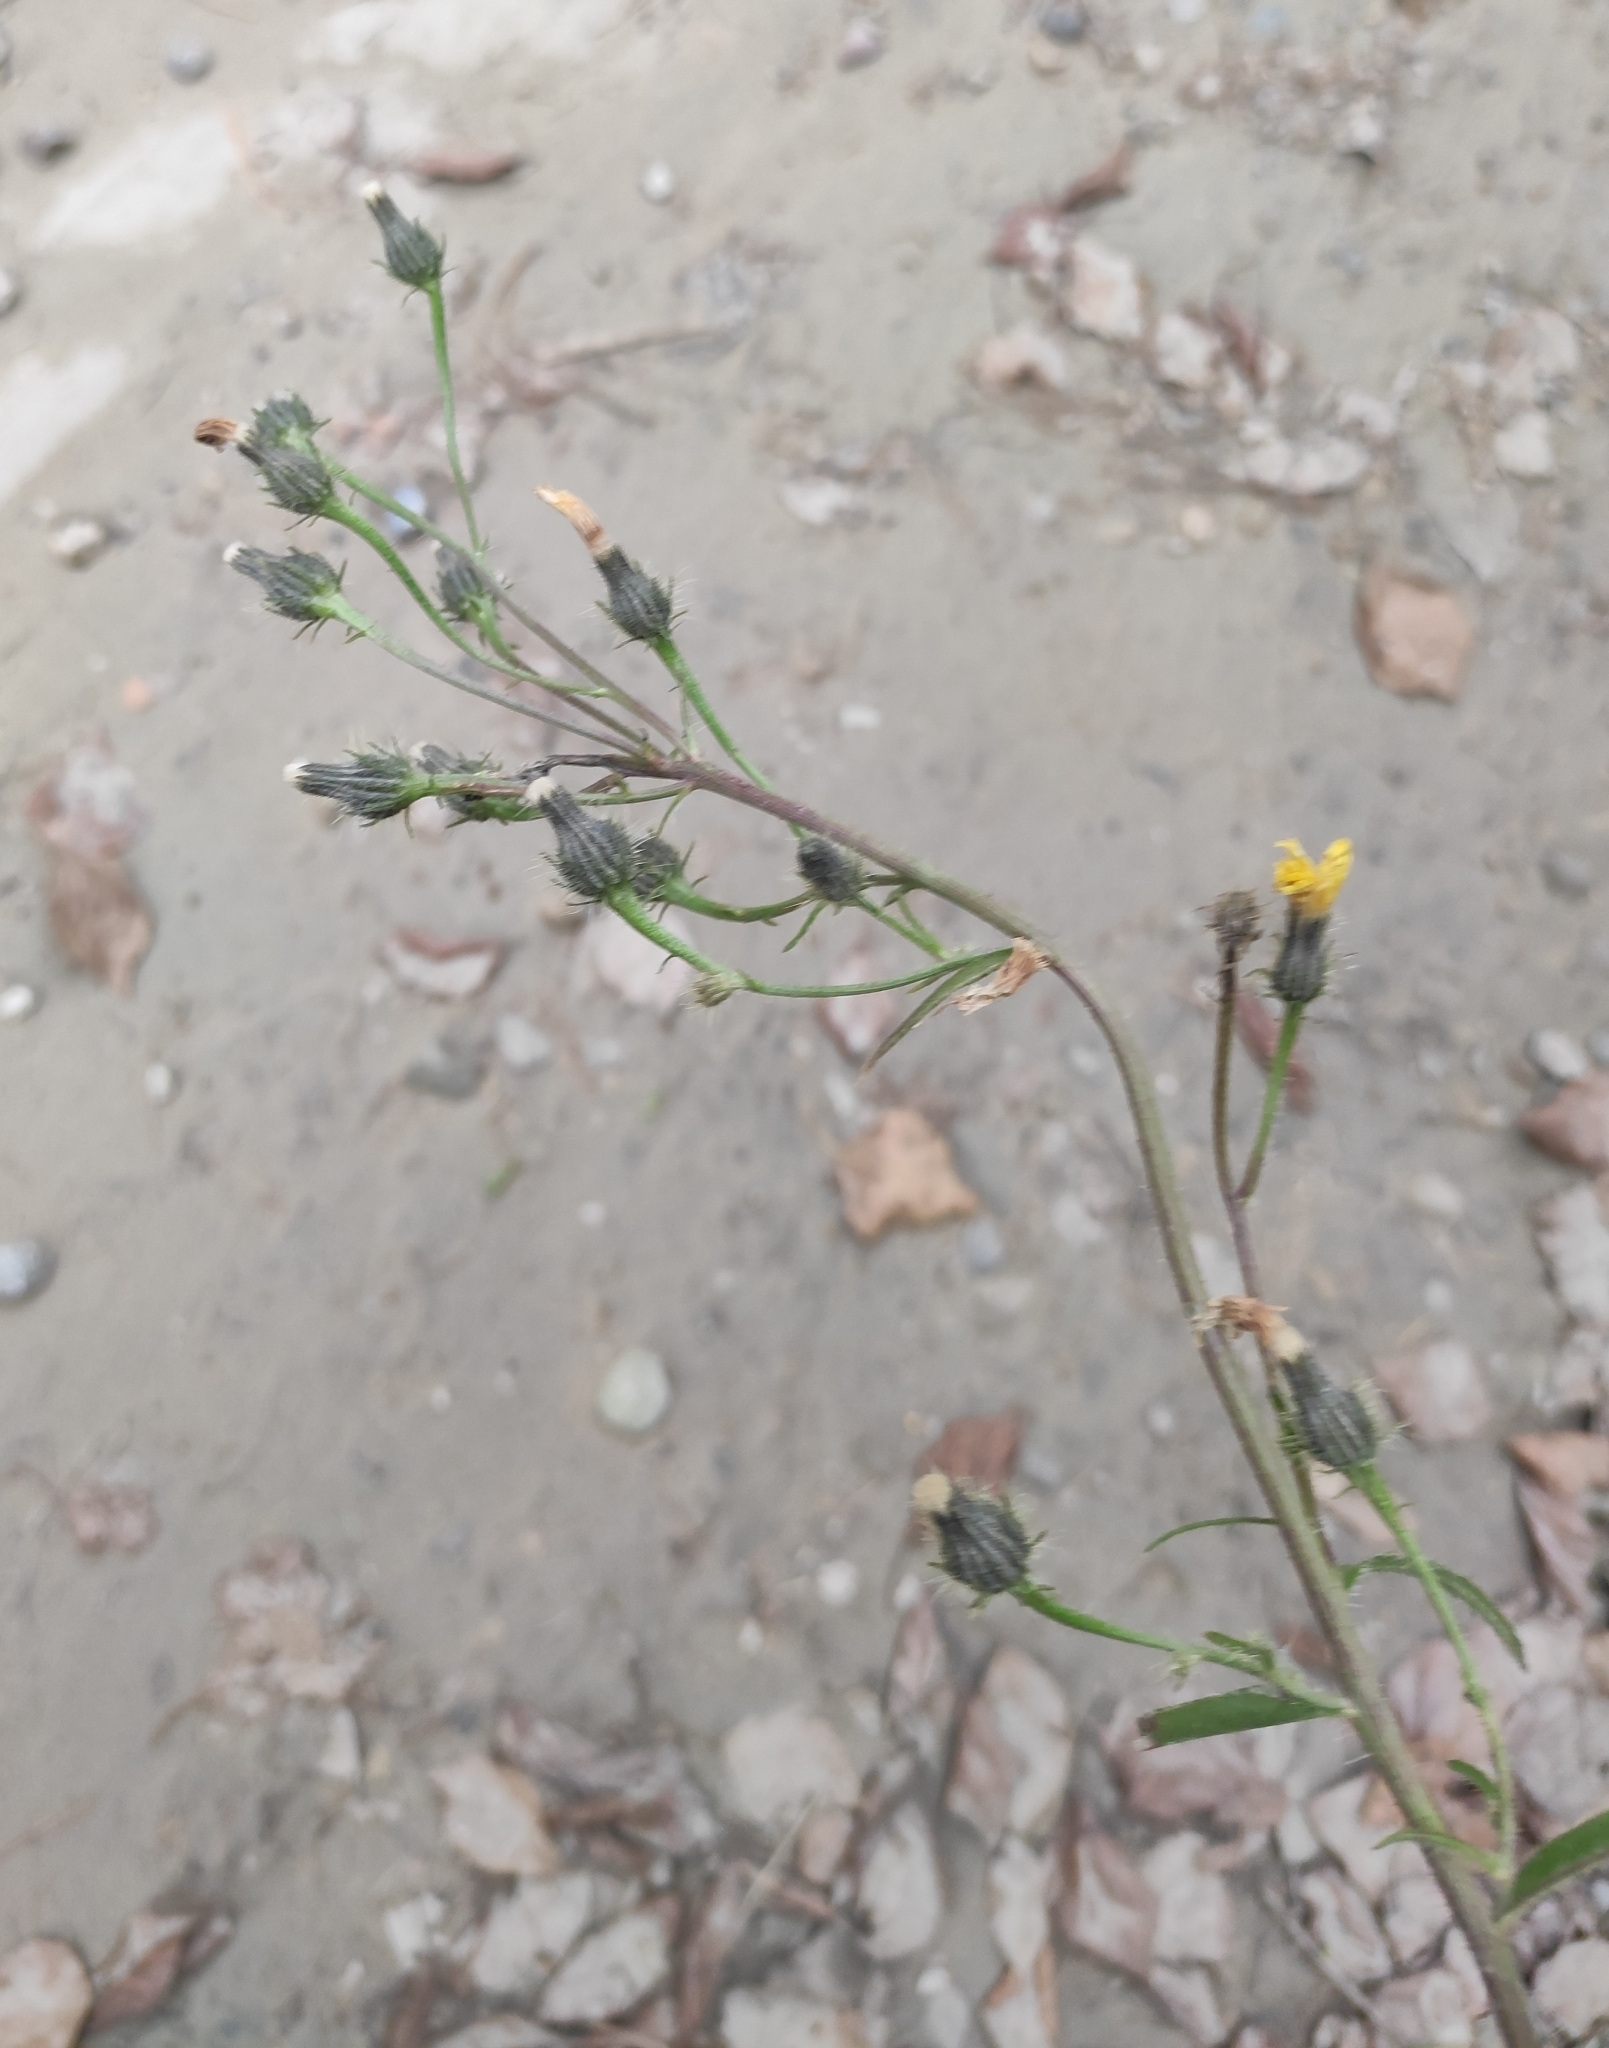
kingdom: Plantae
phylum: Tracheophyta
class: Magnoliopsida
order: Asterales
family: Asteraceae
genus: Picris
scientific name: Picris davurica
